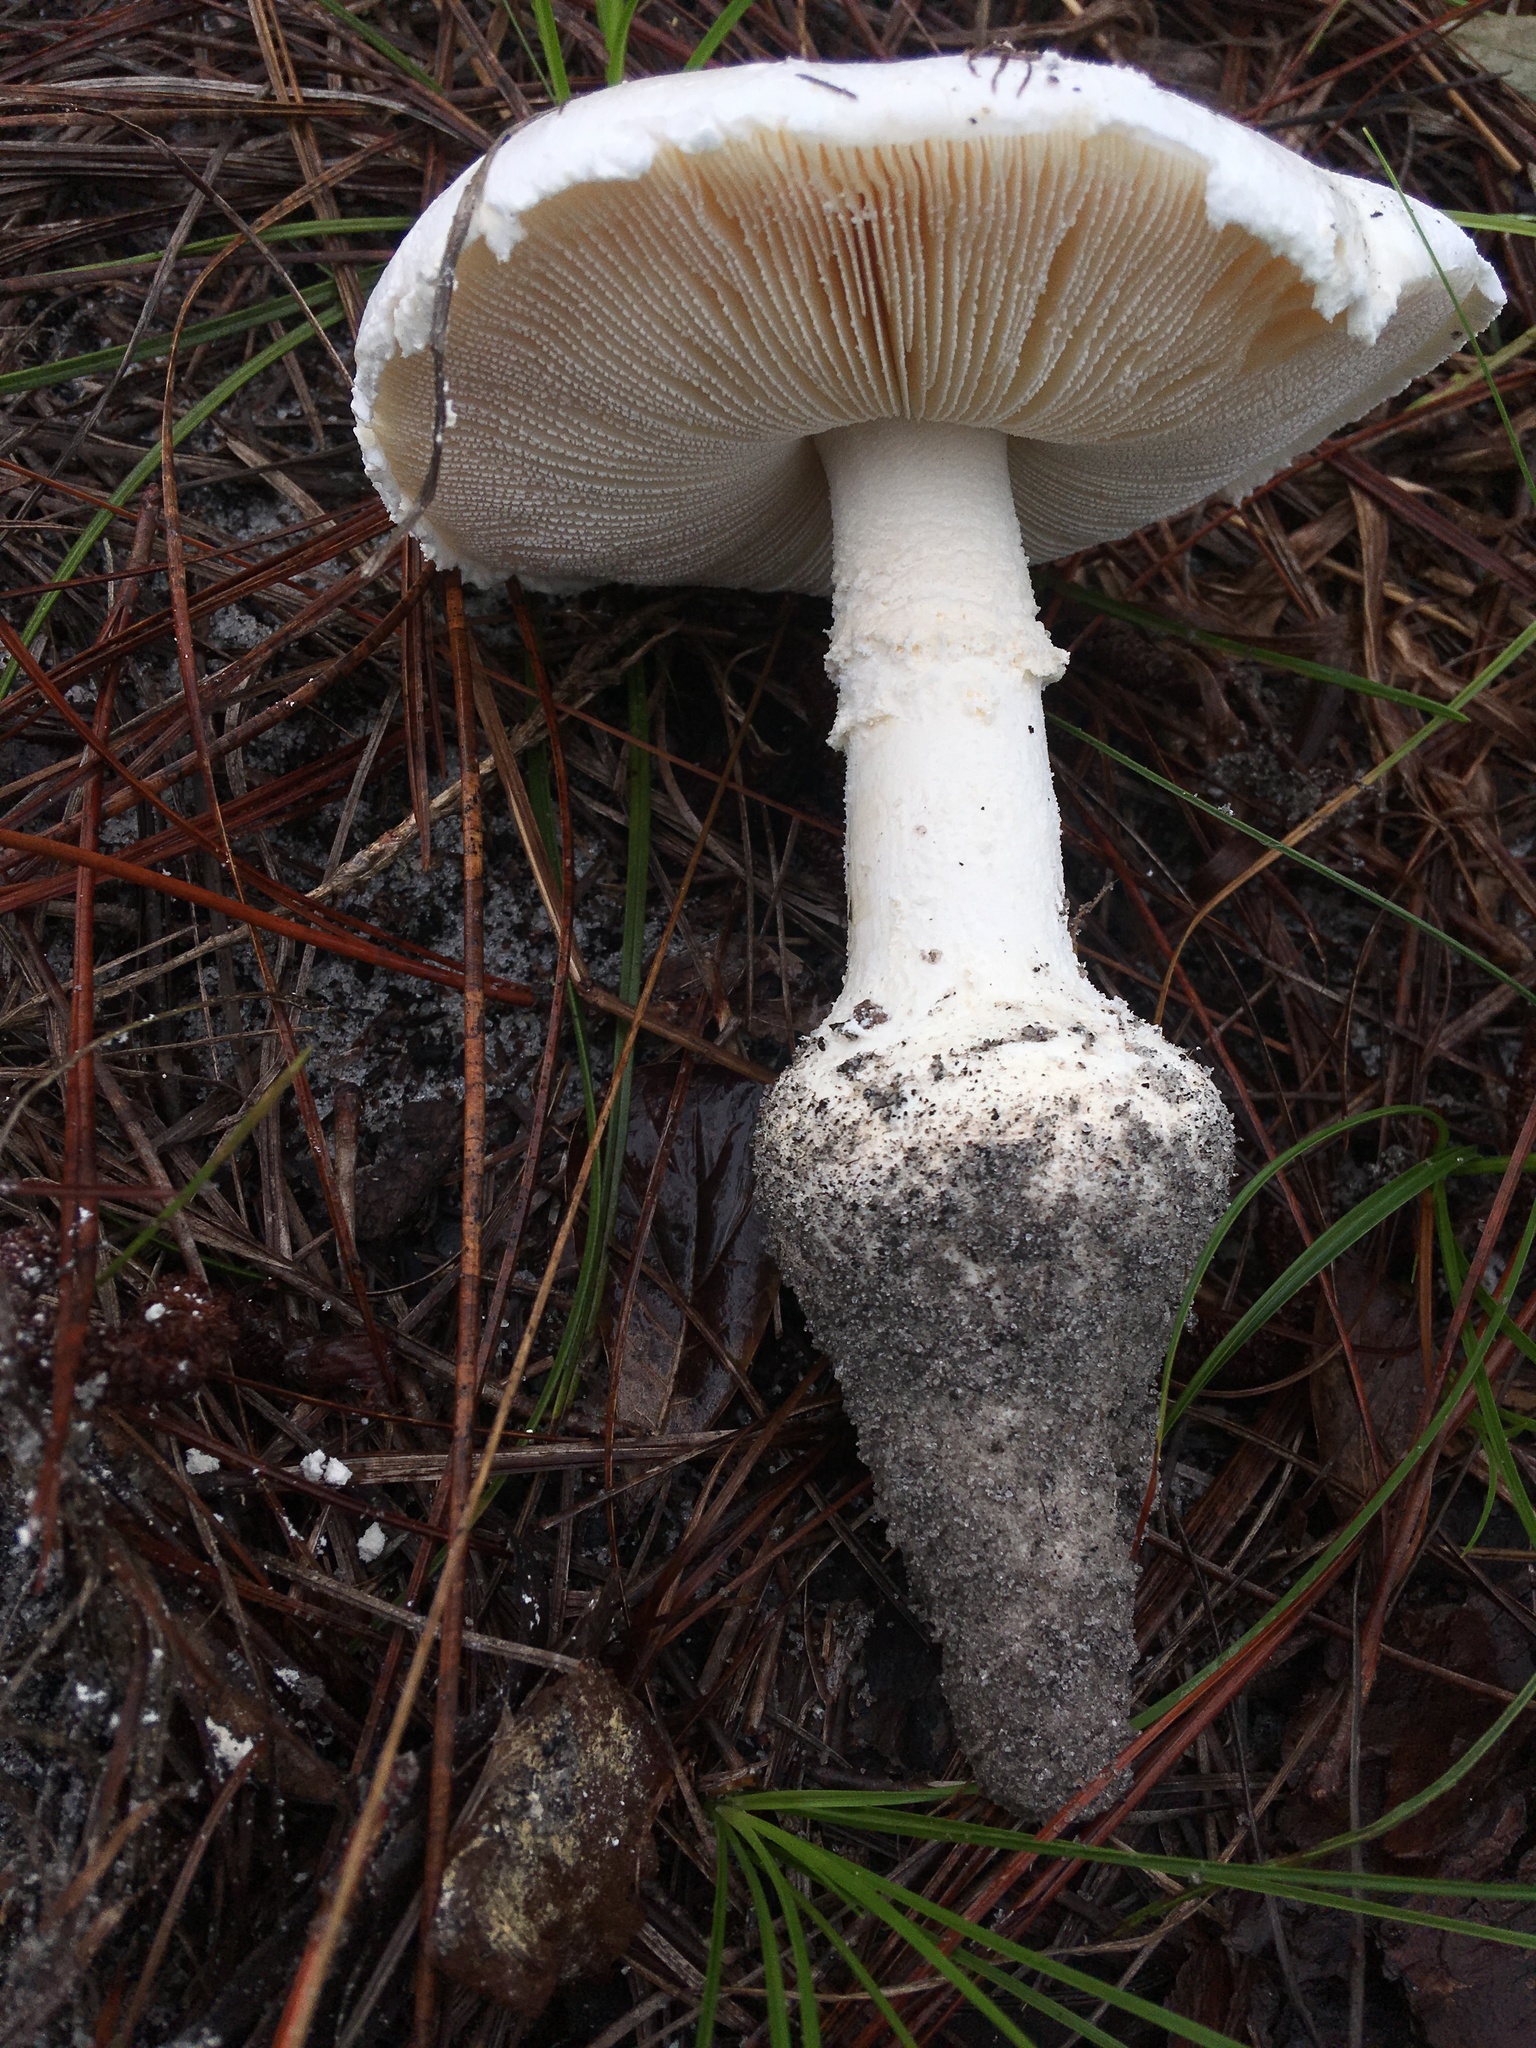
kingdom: Fungi
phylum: Basidiomycota
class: Agaricomycetes
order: Agaricales
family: Amanitaceae
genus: Amanita
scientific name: Amanita rhoadsii
